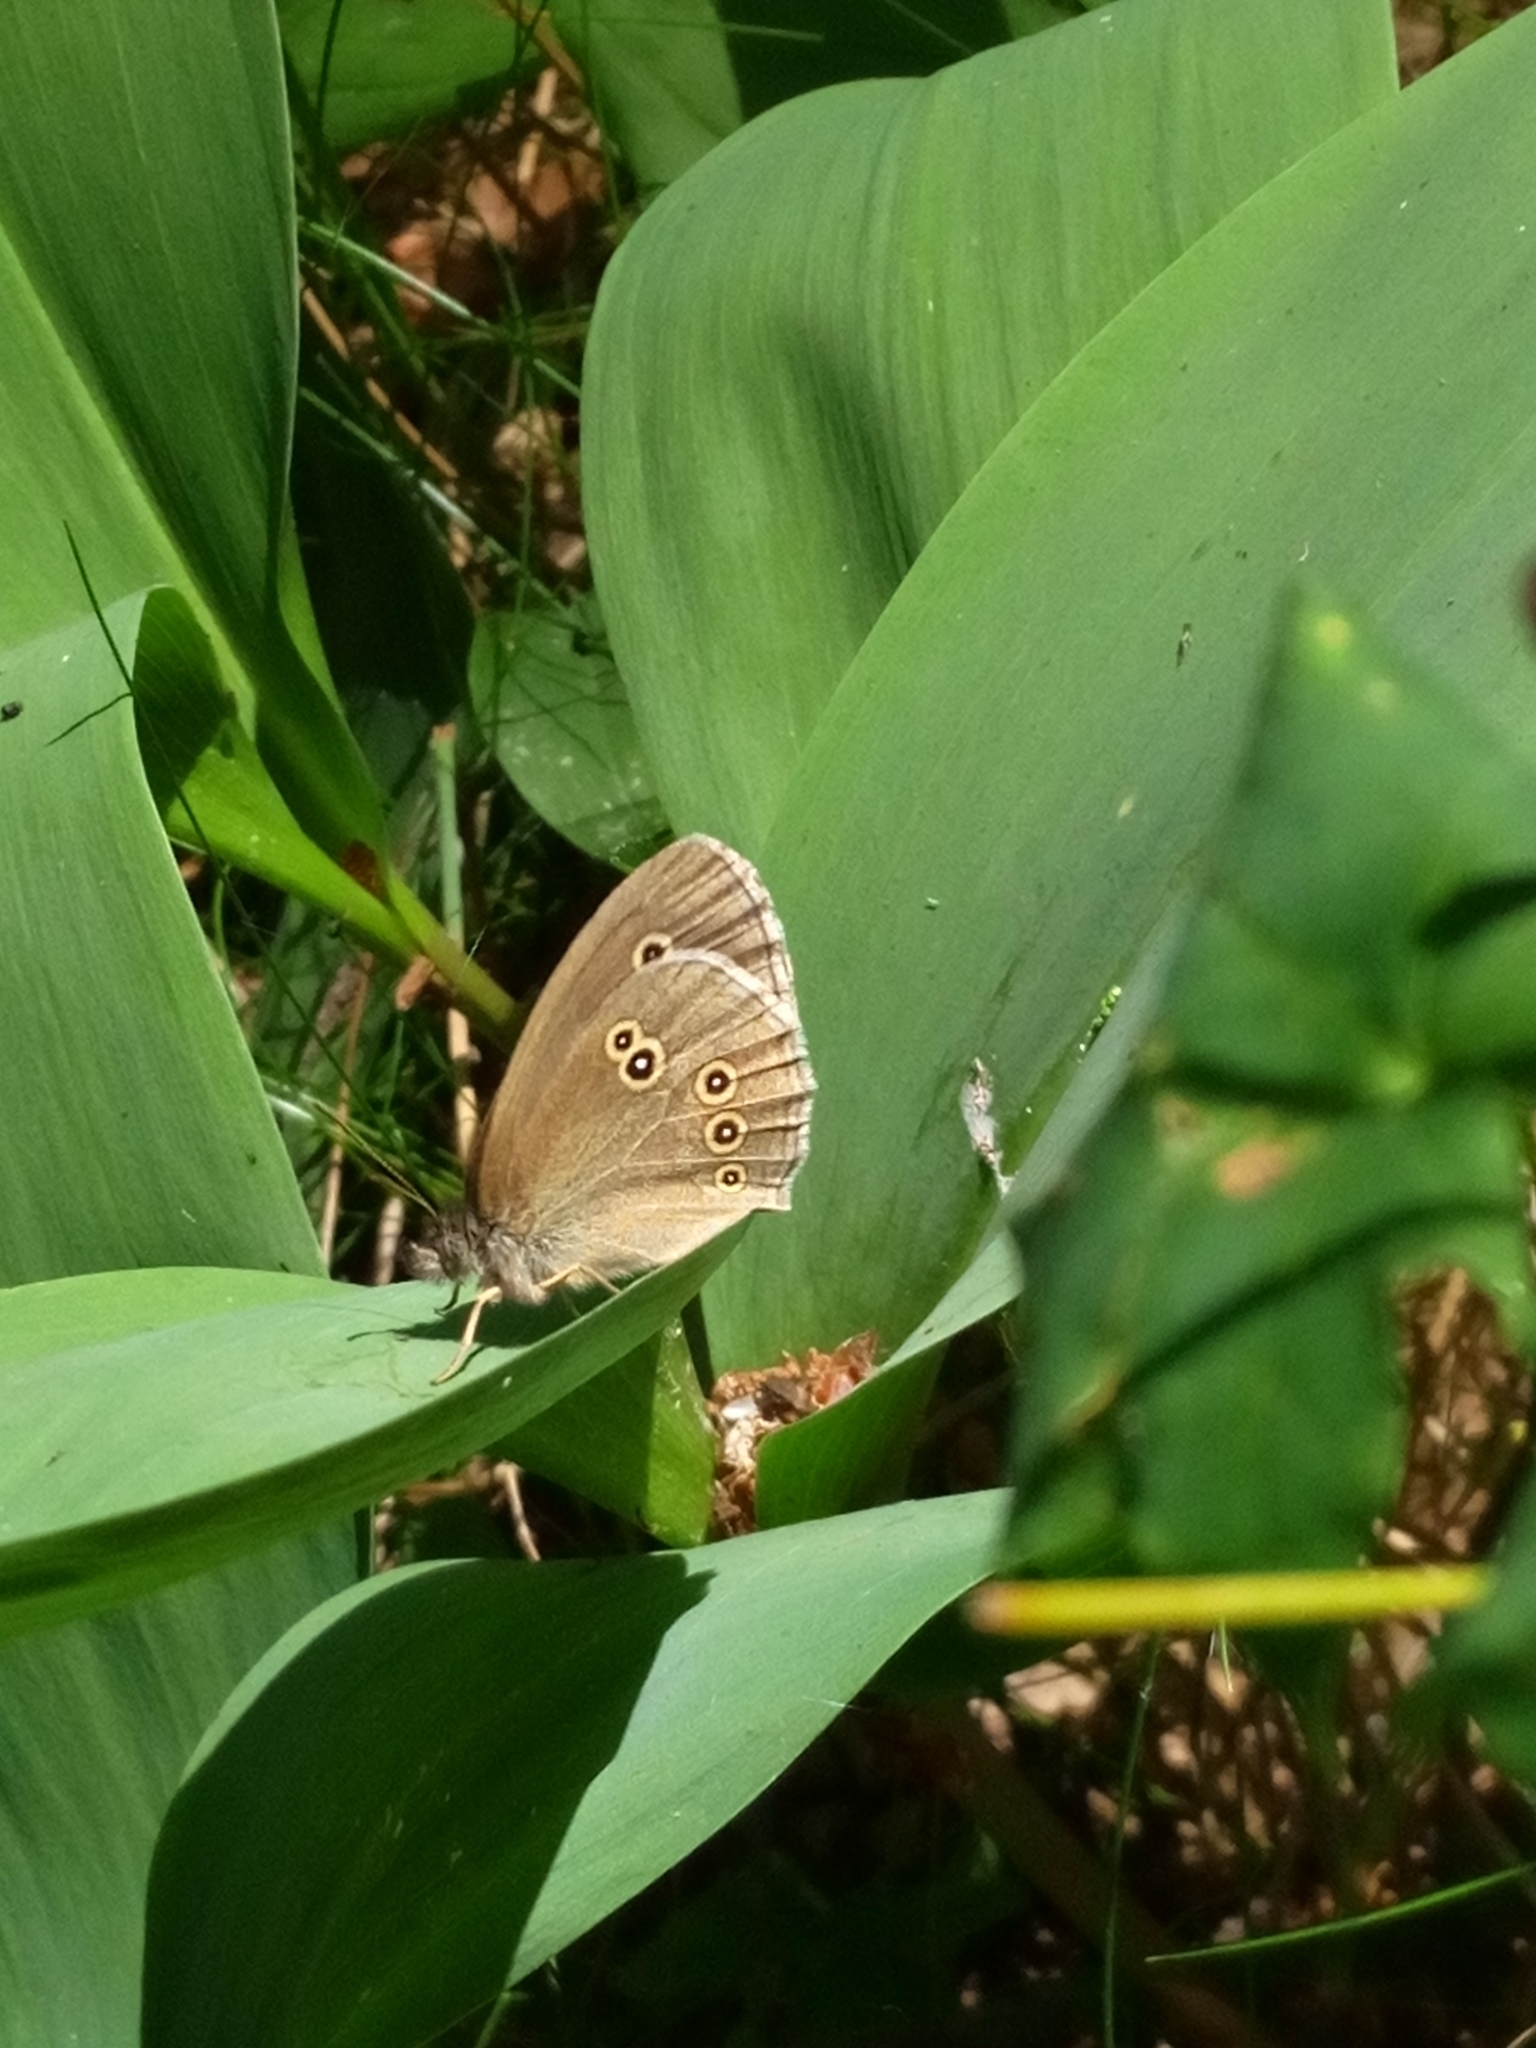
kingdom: Animalia
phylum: Arthropoda
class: Insecta
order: Lepidoptera
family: Nymphalidae
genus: Aphantopus
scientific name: Aphantopus hyperantus
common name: Ringlet
